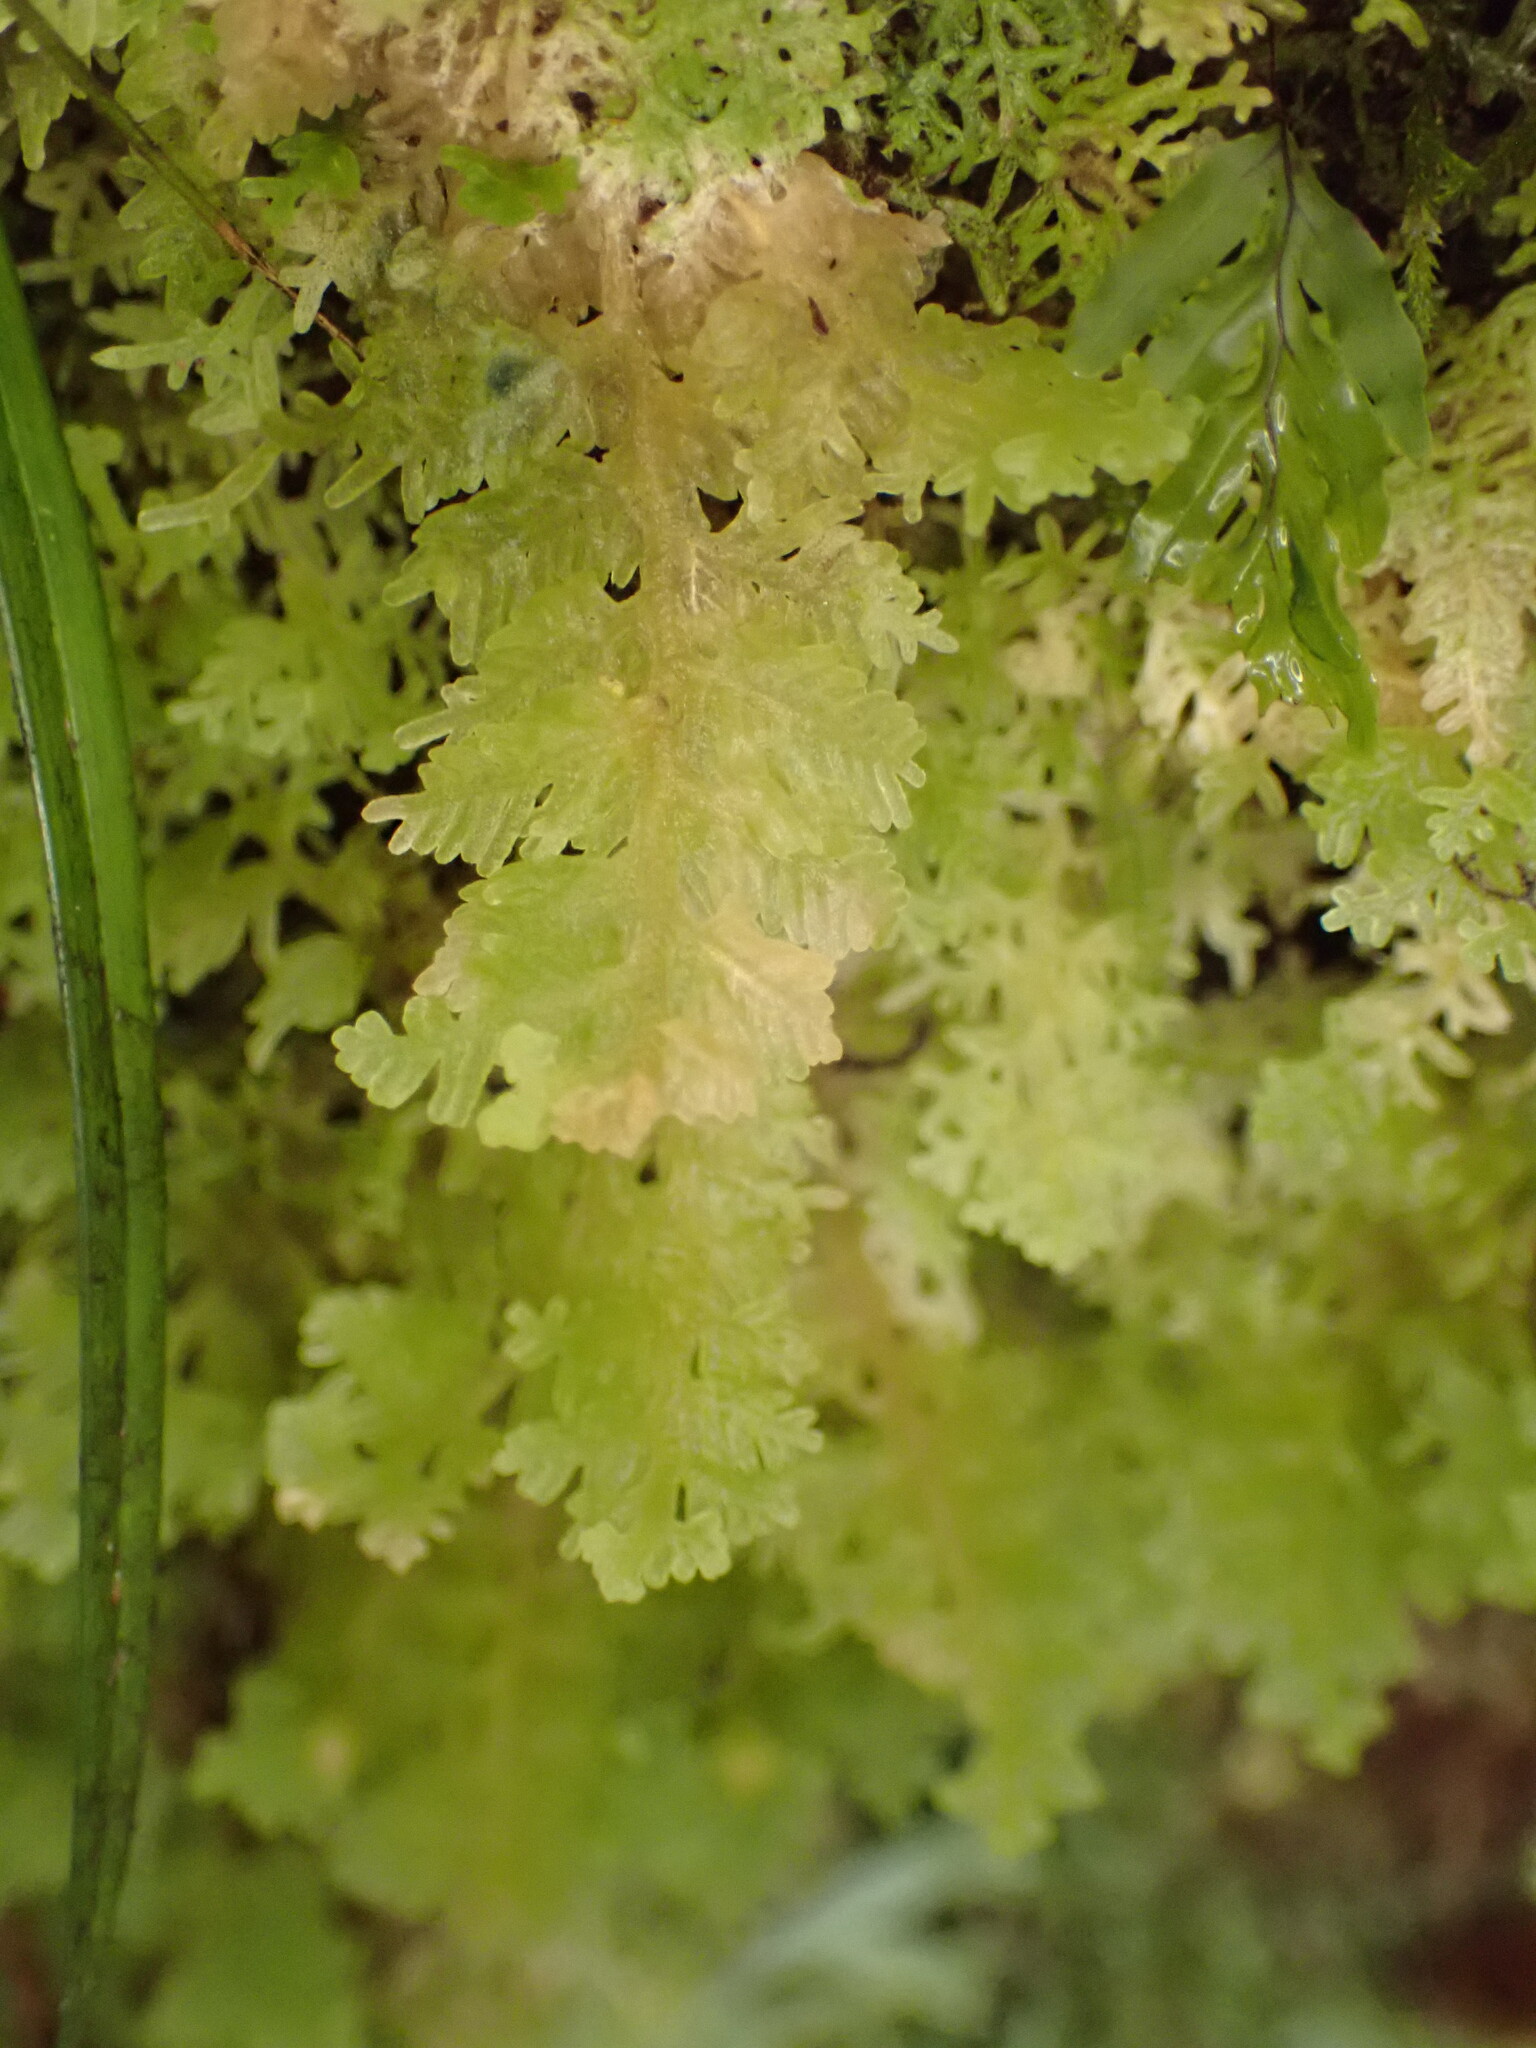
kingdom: Plantae
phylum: Marchantiophyta
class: Jungermanniopsida
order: Jungermanniales
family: Trichocoleaceae
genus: Trichocolea
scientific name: Trichocolea mollissima
